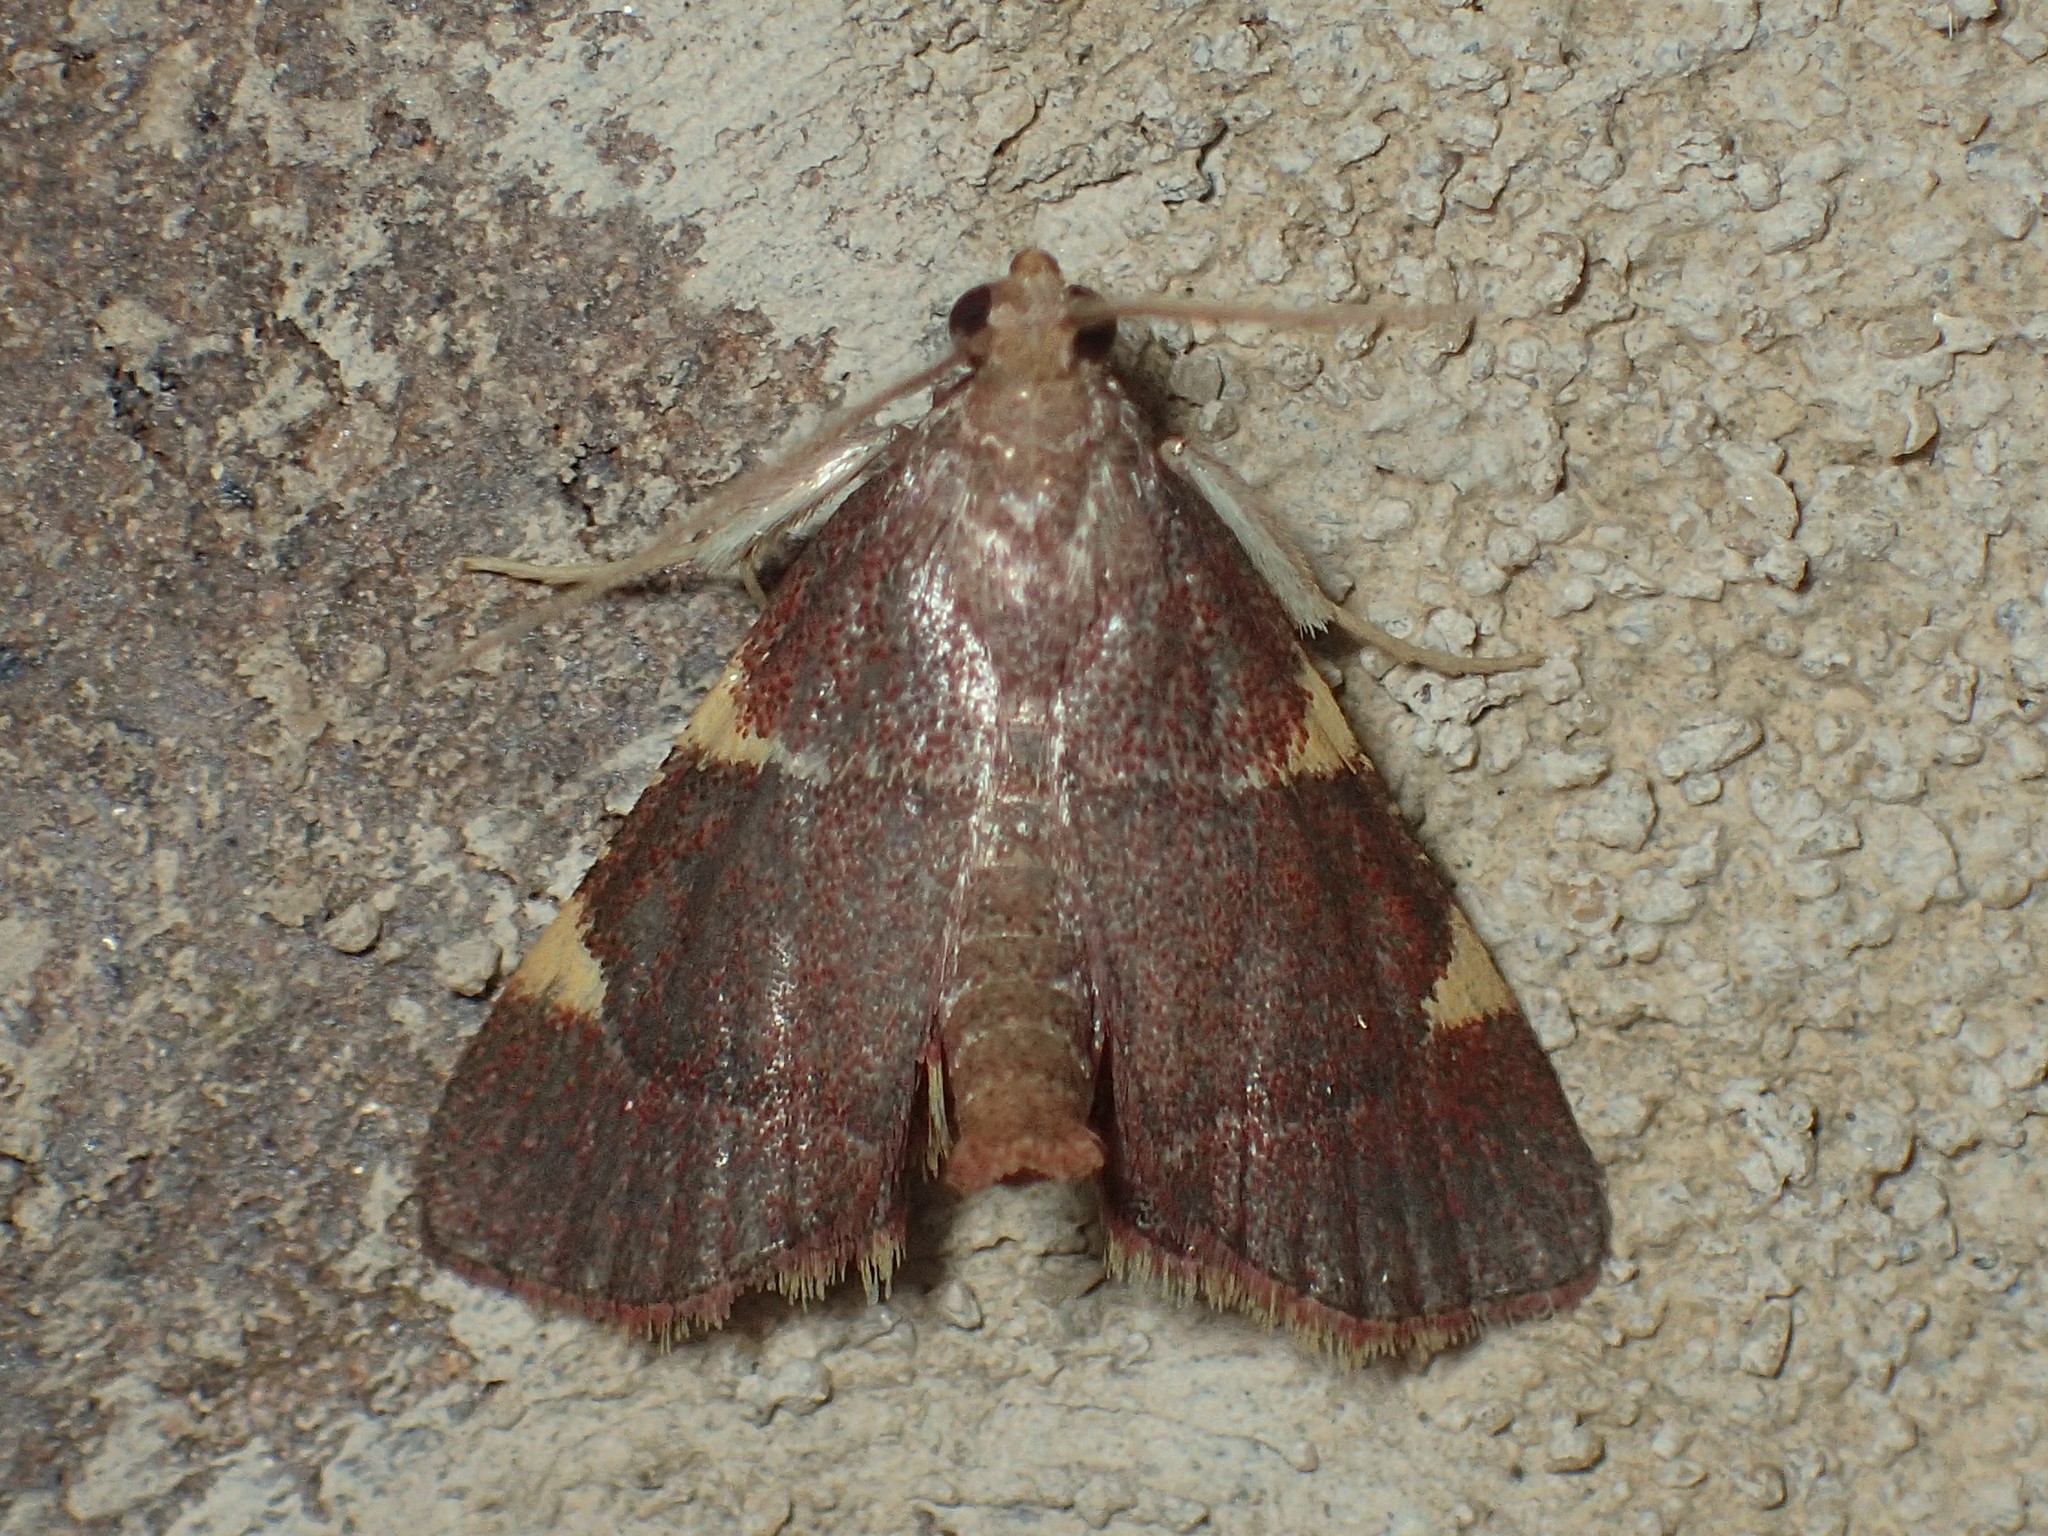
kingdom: Animalia
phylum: Arthropoda
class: Insecta
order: Lepidoptera
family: Pyralidae
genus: Hypsopygia
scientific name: Hypsopygia olinalis
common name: Yellow-fringed dolichomia moth
